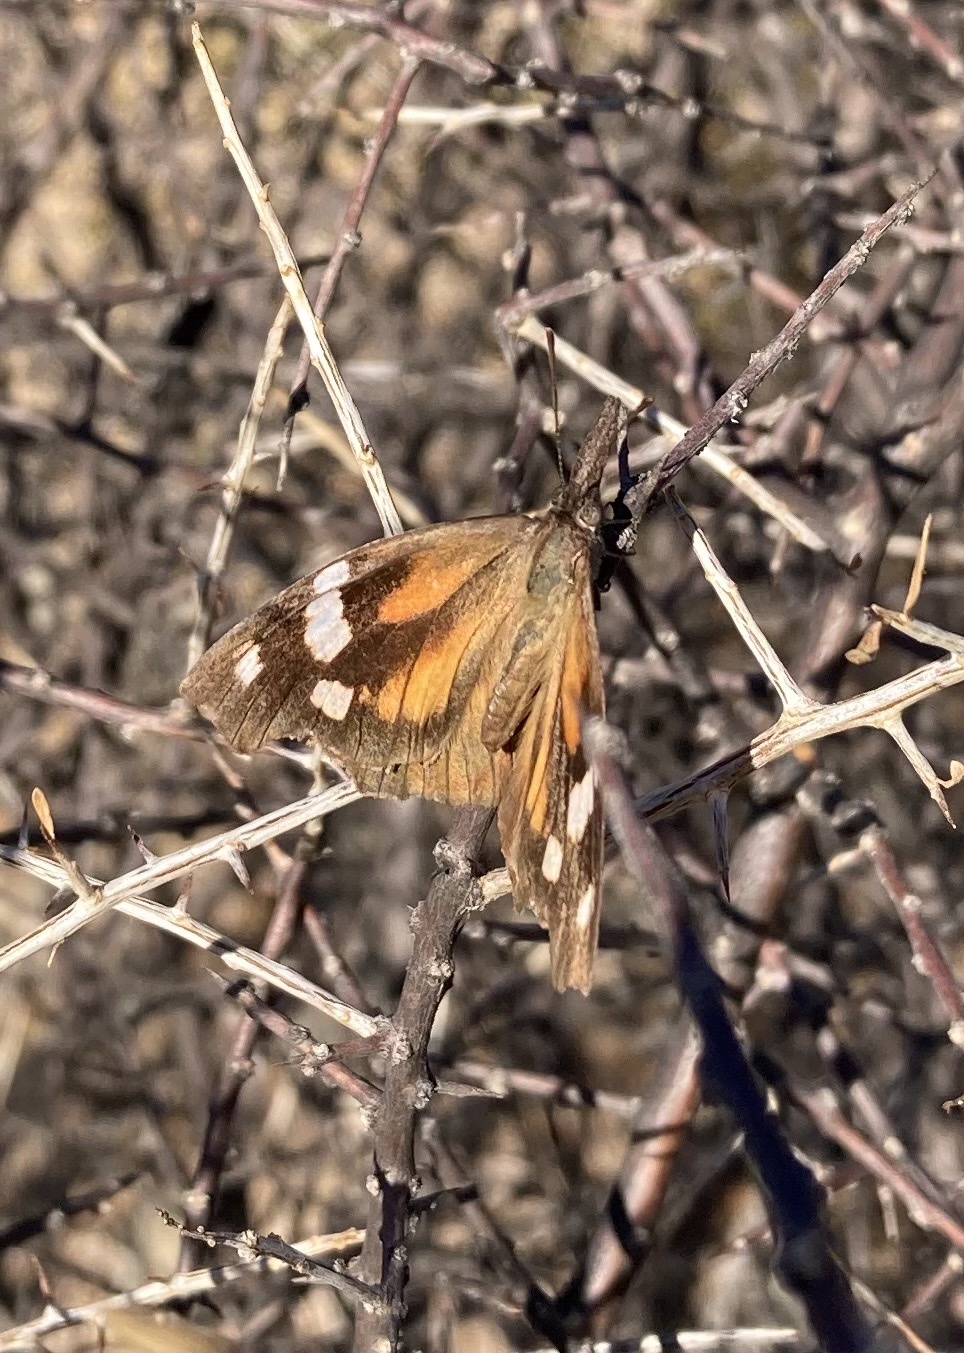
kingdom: Animalia
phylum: Arthropoda
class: Insecta
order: Lepidoptera
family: Nymphalidae
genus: Libytheana
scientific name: Libytheana carinenta
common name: American snout
